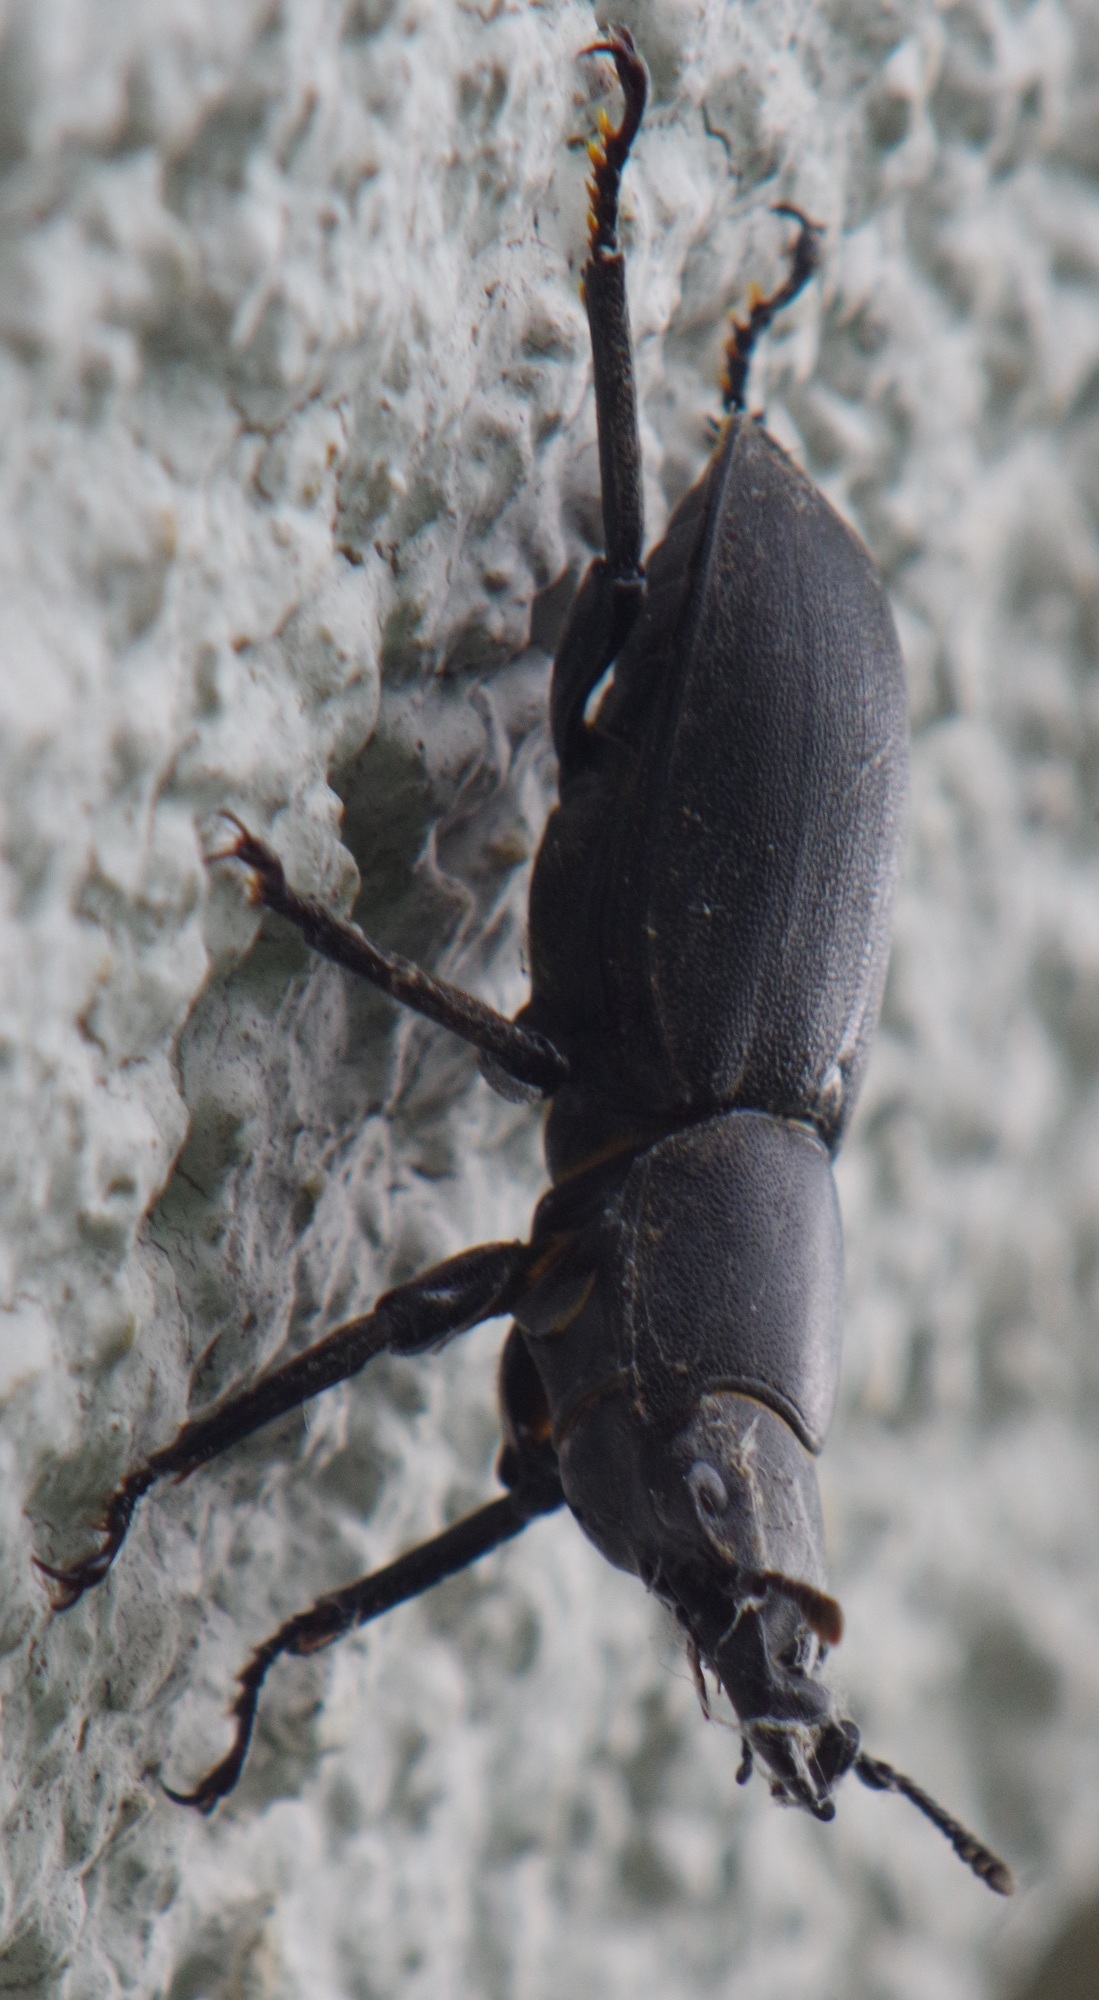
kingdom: Animalia
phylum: Arthropoda
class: Insecta
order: Coleoptera
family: Lucanidae
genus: Dorcus
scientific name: Dorcus parallelipipedus
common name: Lesser stag beetle
